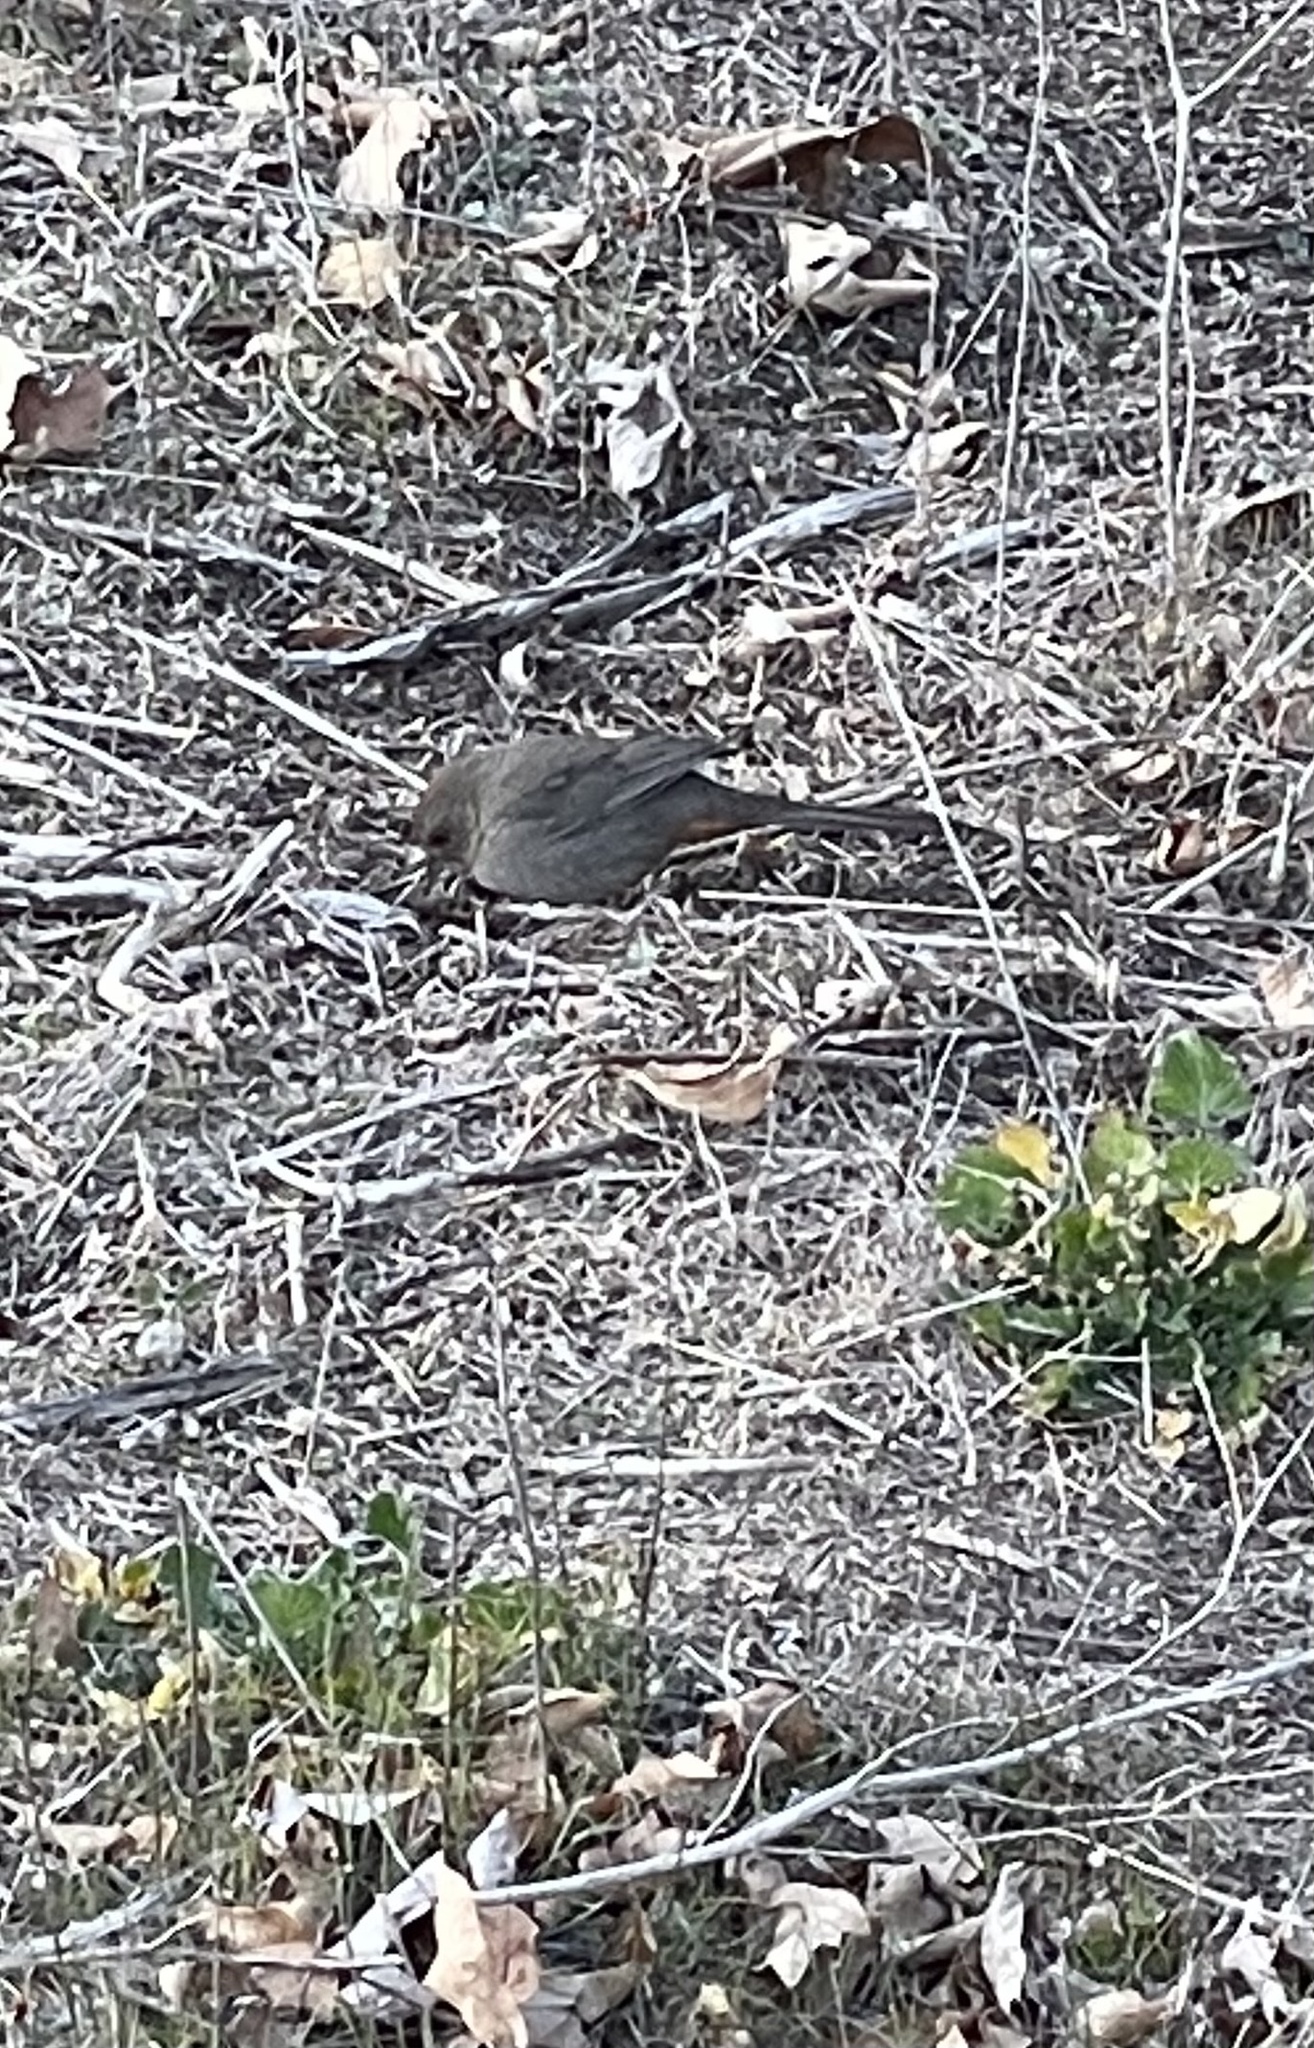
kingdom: Animalia
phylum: Chordata
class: Aves
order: Passeriformes
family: Passerellidae
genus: Melozone
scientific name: Melozone crissalis
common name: California towhee
